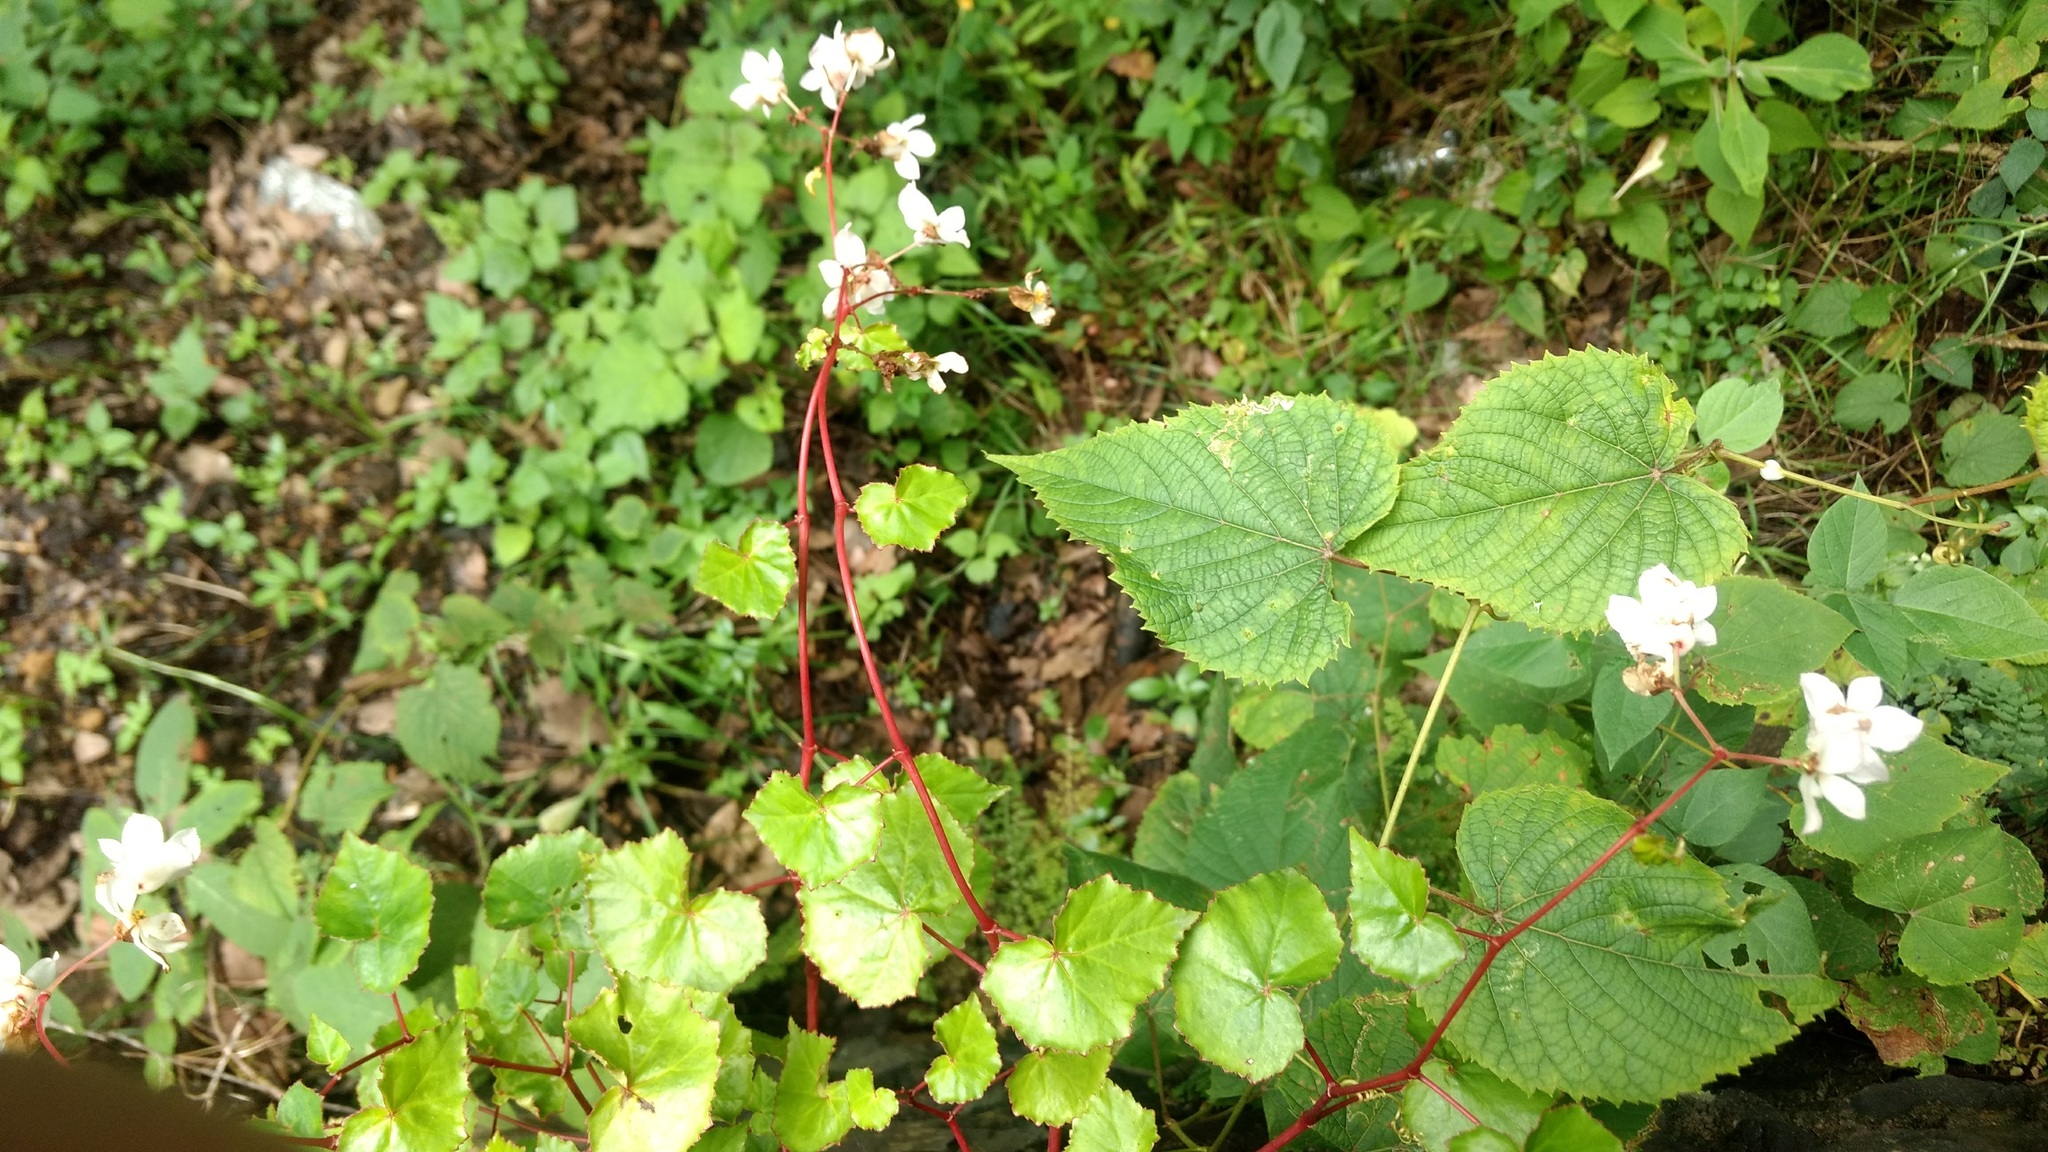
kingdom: Plantae
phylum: Tracheophyta
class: Magnoliopsida
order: Cucurbitales
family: Begoniaceae
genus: Begonia
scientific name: Begonia boissieri
